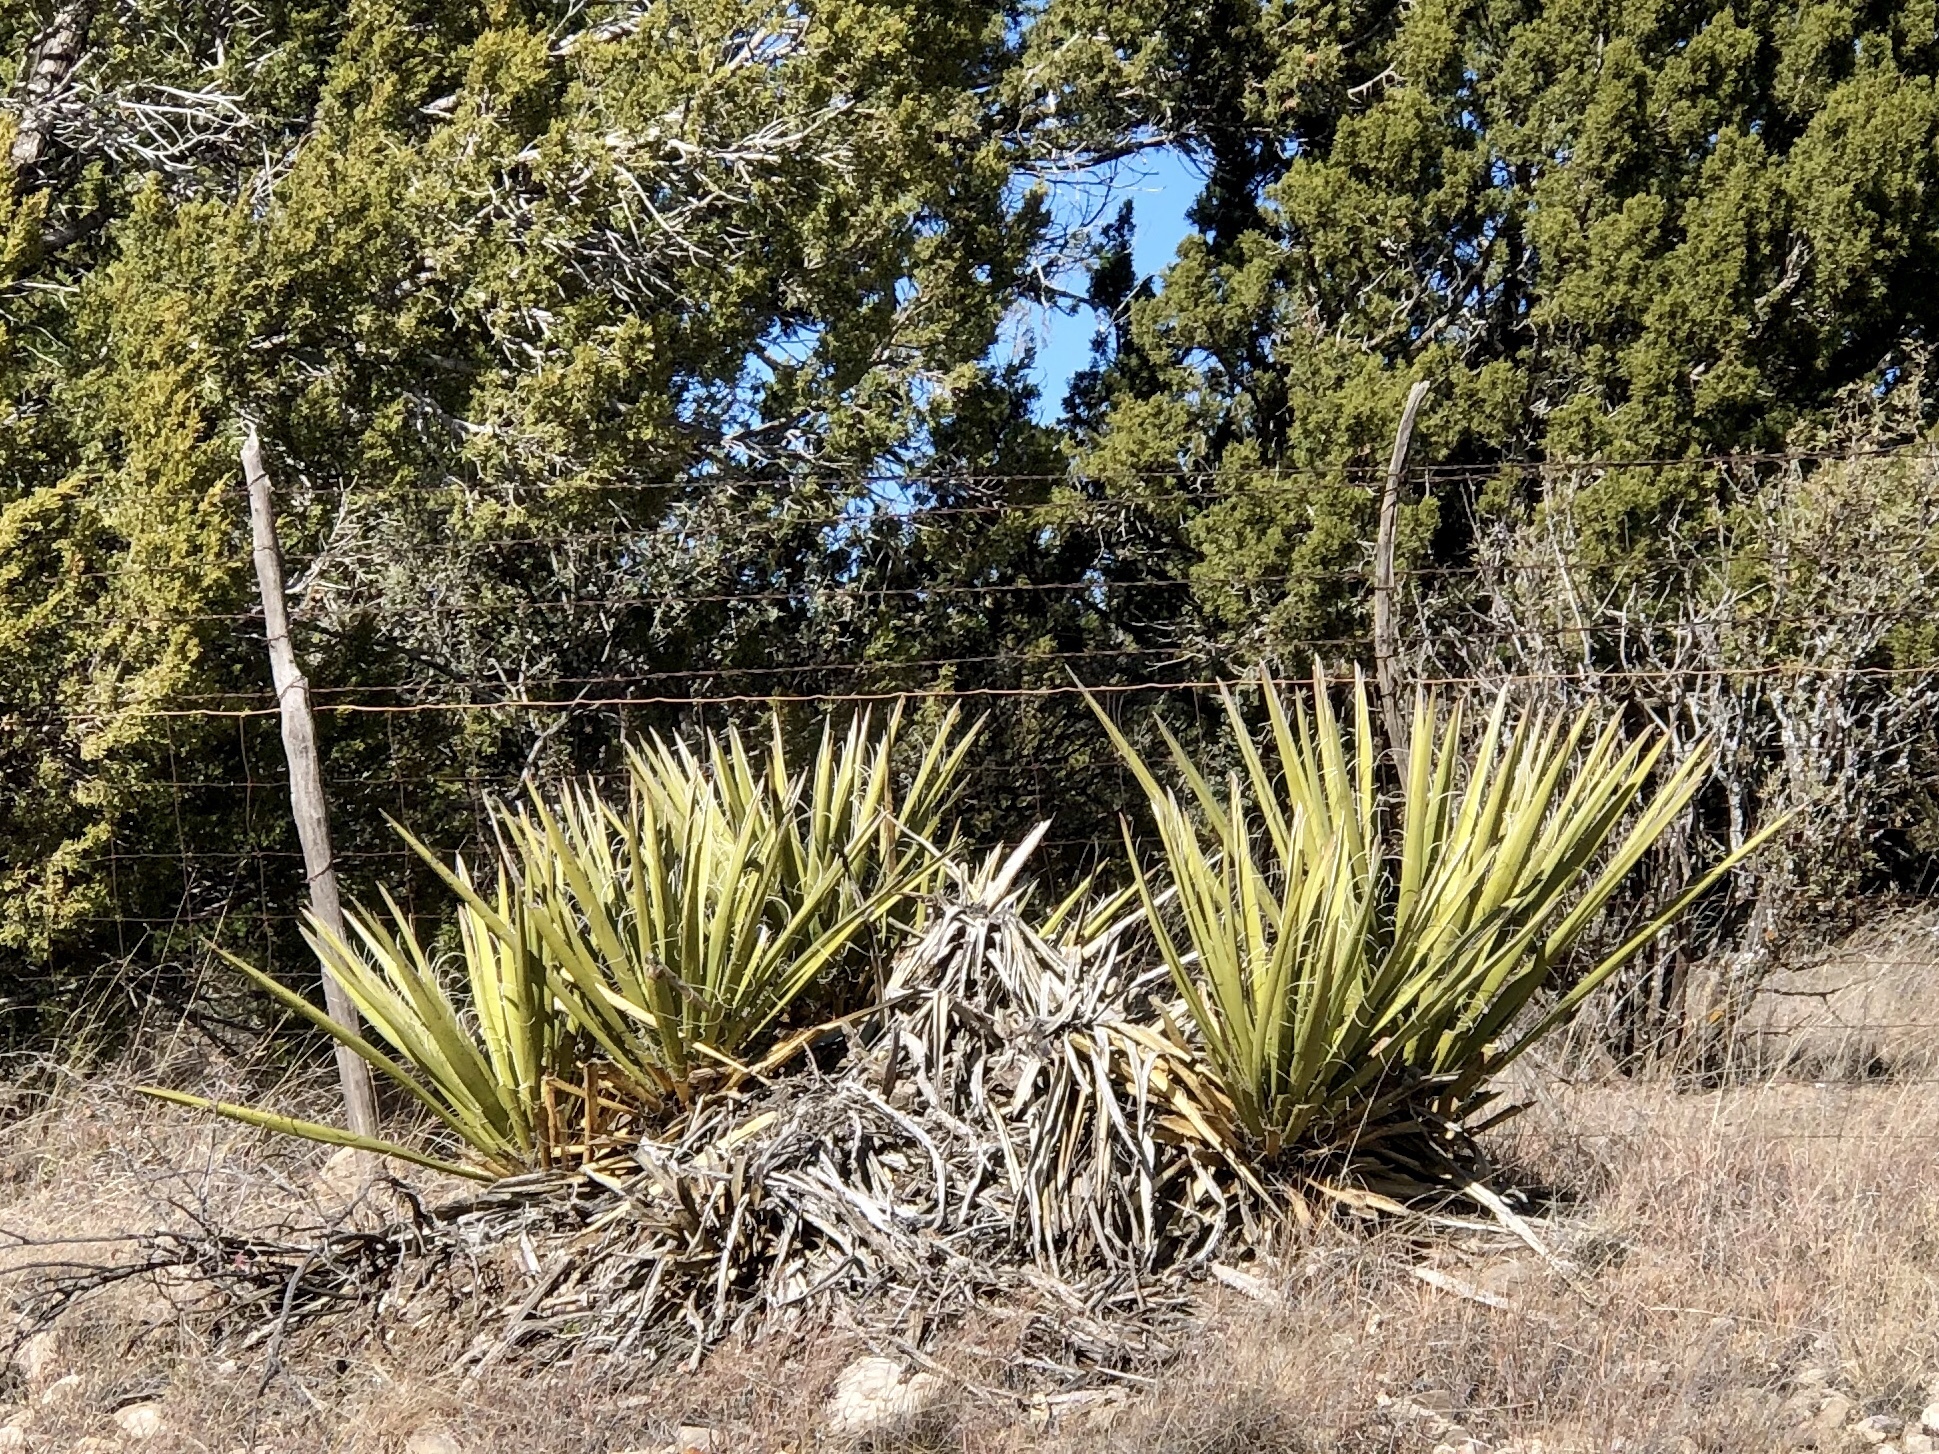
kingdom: Plantae
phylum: Tracheophyta
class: Liliopsida
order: Asparagales
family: Asparagaceae
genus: Yucca
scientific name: Yucca baccata
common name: Banana yucca
